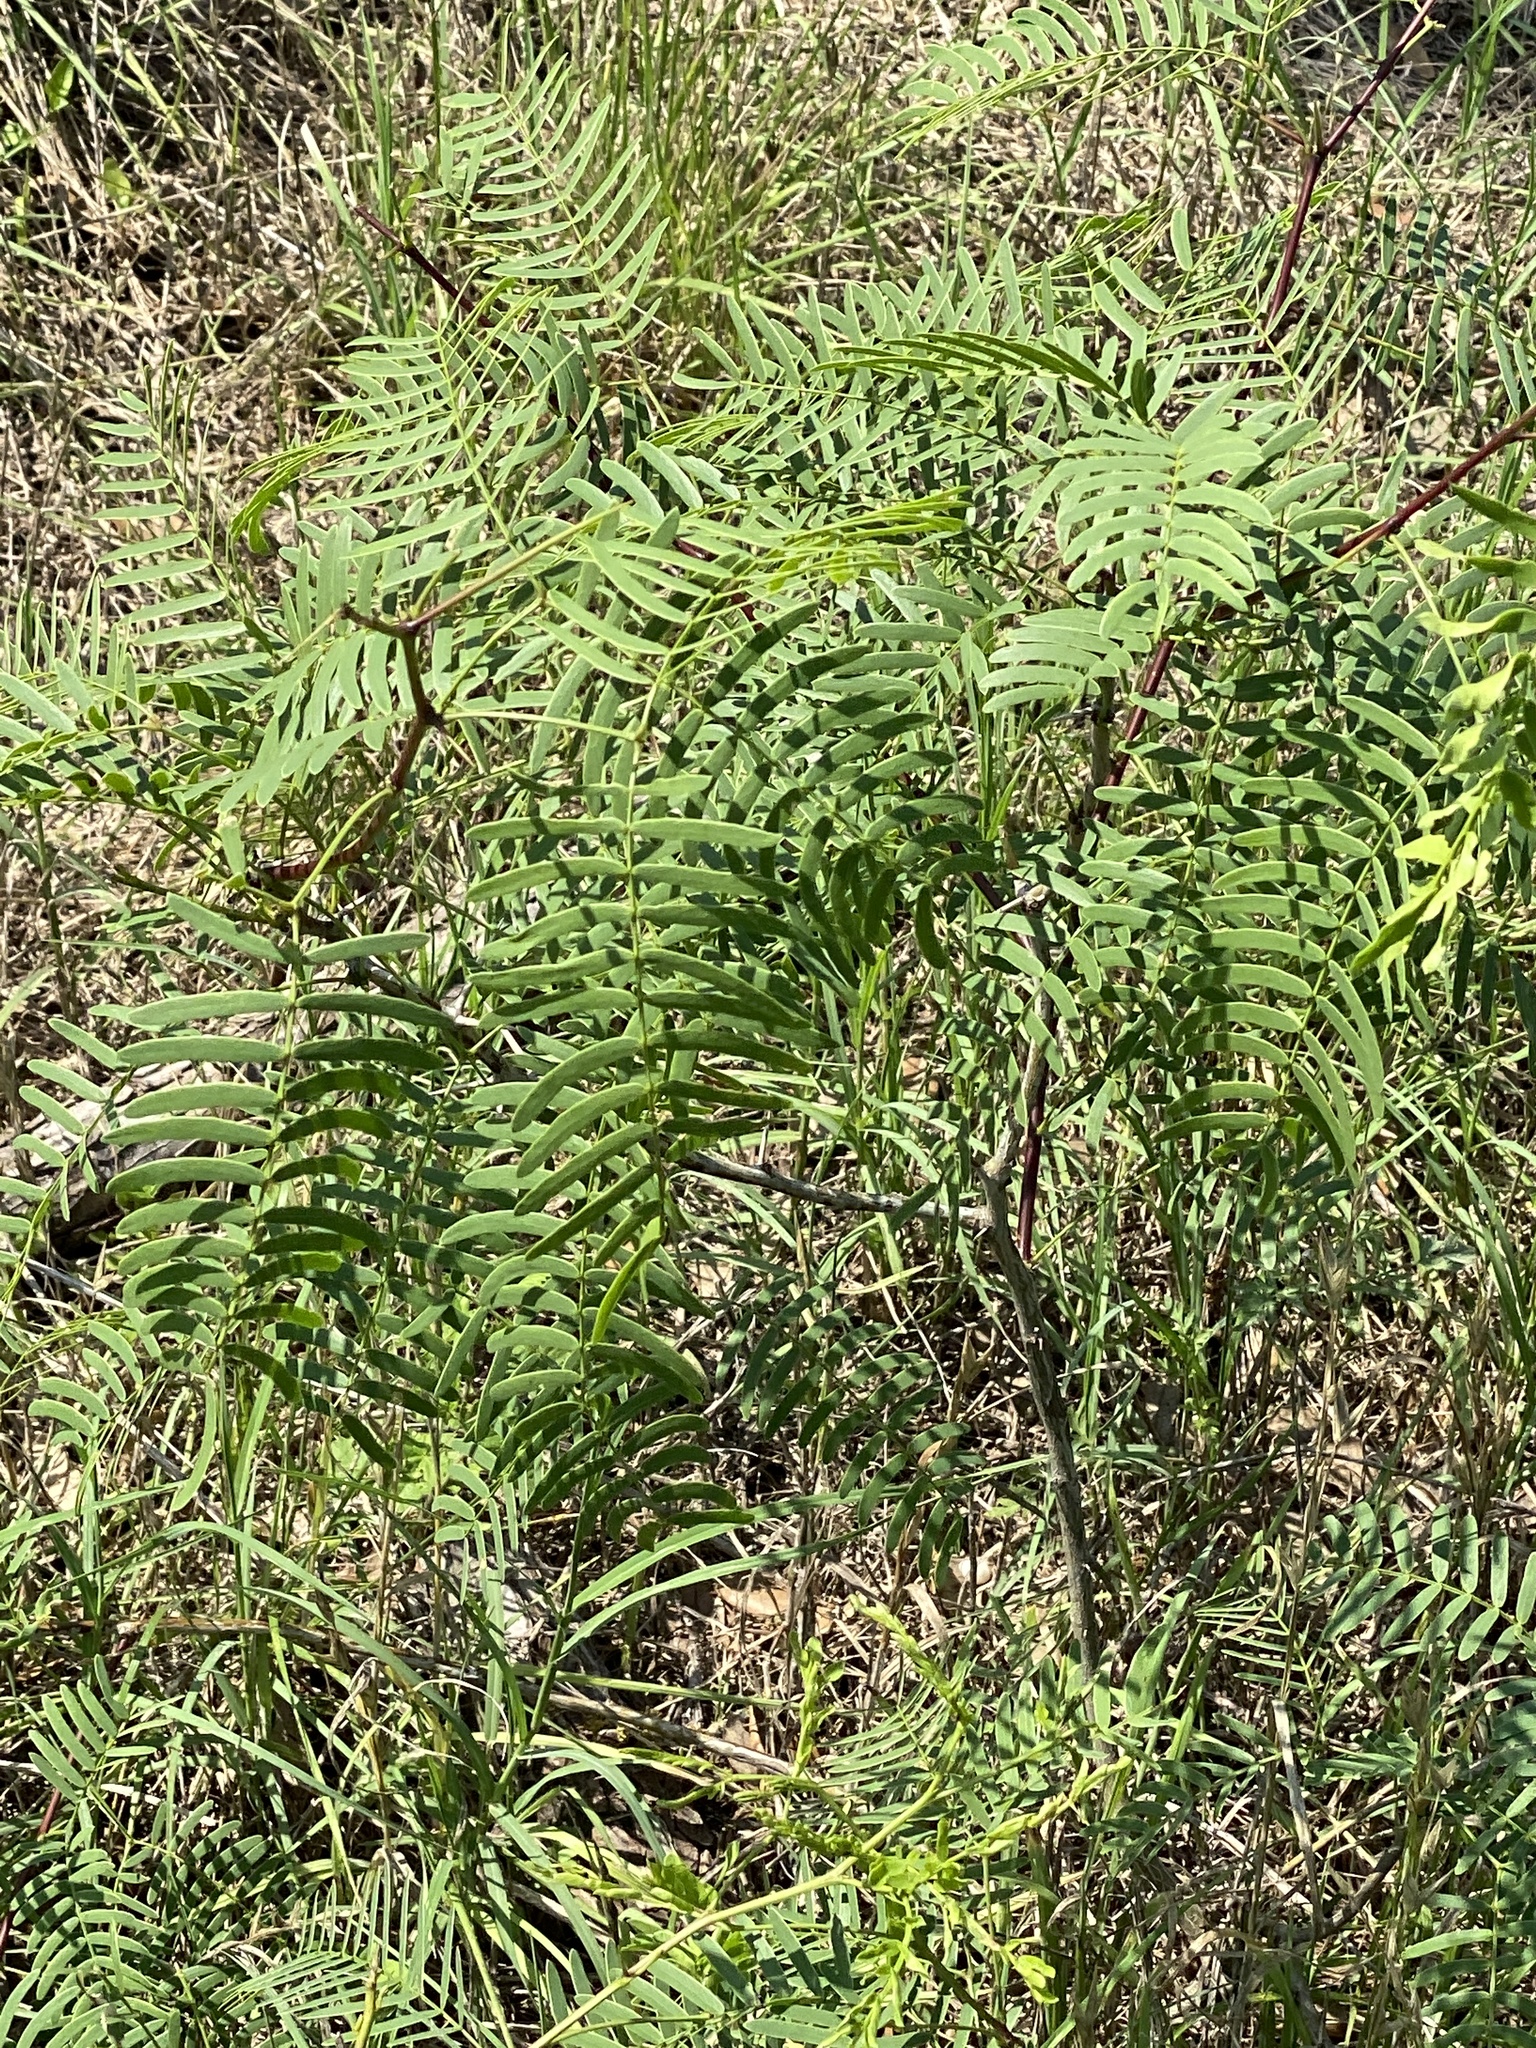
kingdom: Plantae
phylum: Tracheophyta
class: Magnoliopsida
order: Fabales
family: Fabaceae
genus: Prosopis
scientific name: Prosopis glandulosa
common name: Honey mesquite
